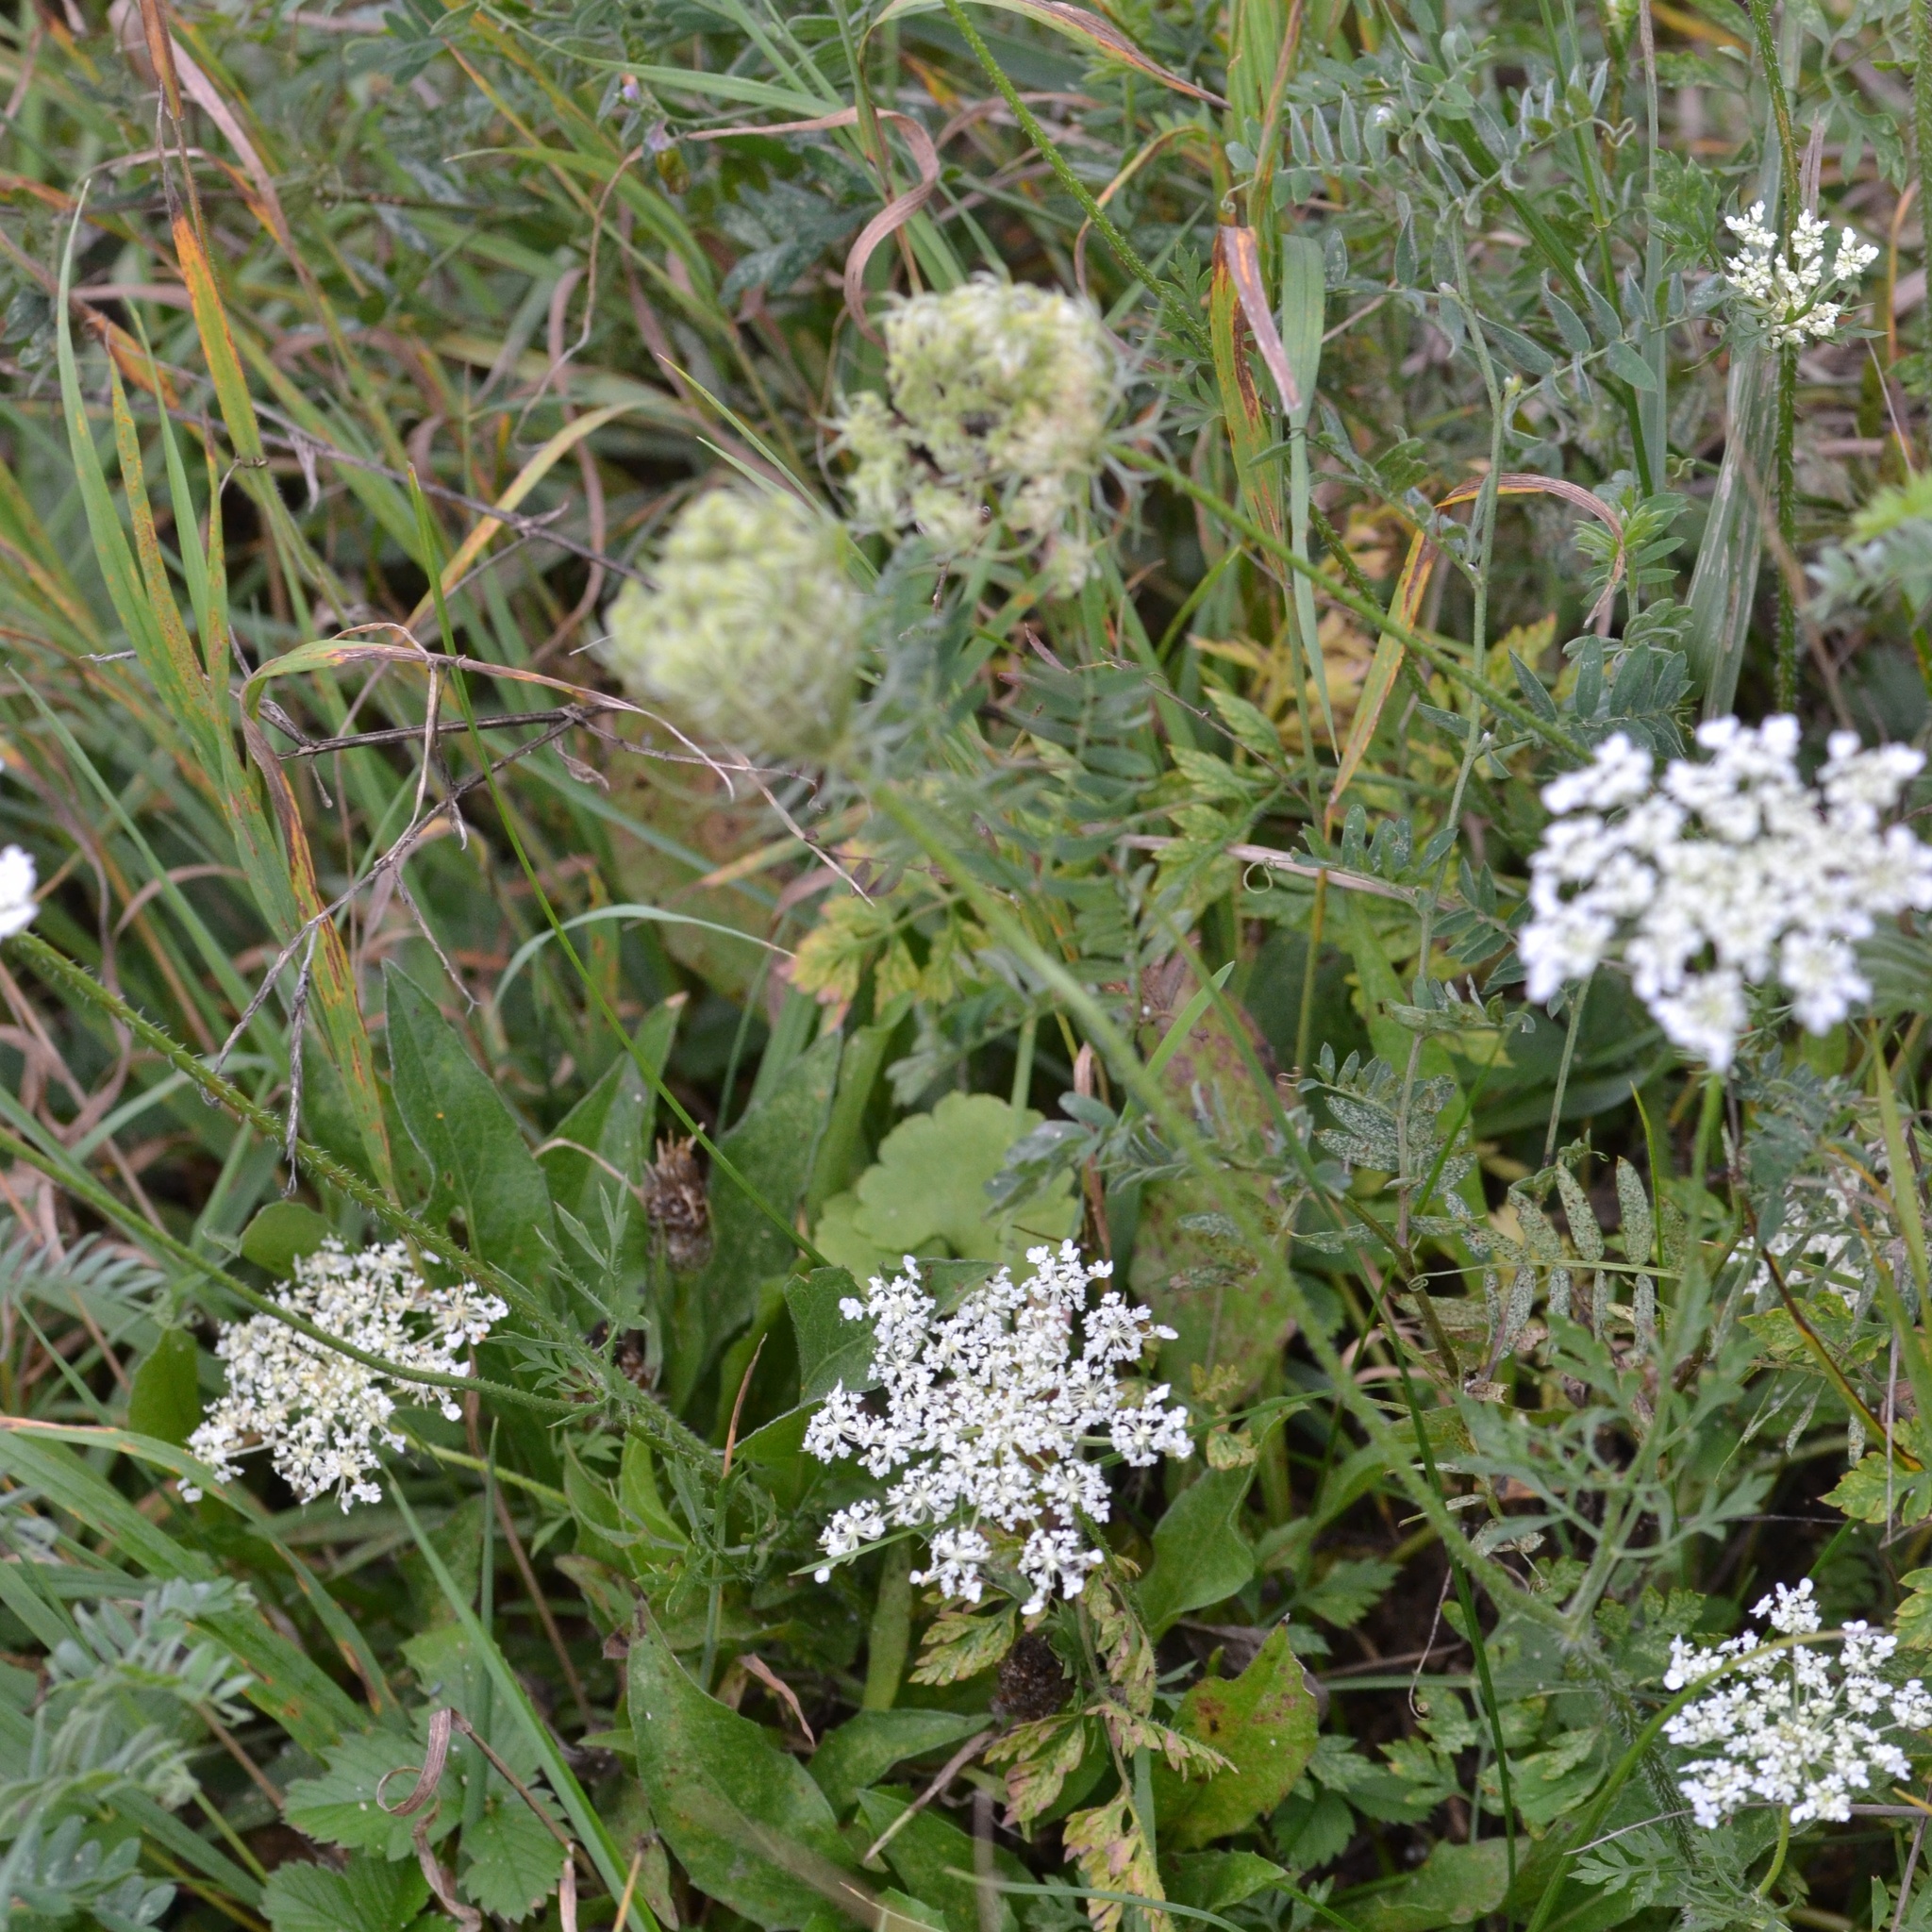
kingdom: Plantae
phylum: Tracheophyta
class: Magnoliopsida
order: Apiales
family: Apiaceae
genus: Daucus
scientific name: Daucus carota
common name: Wild carrot
